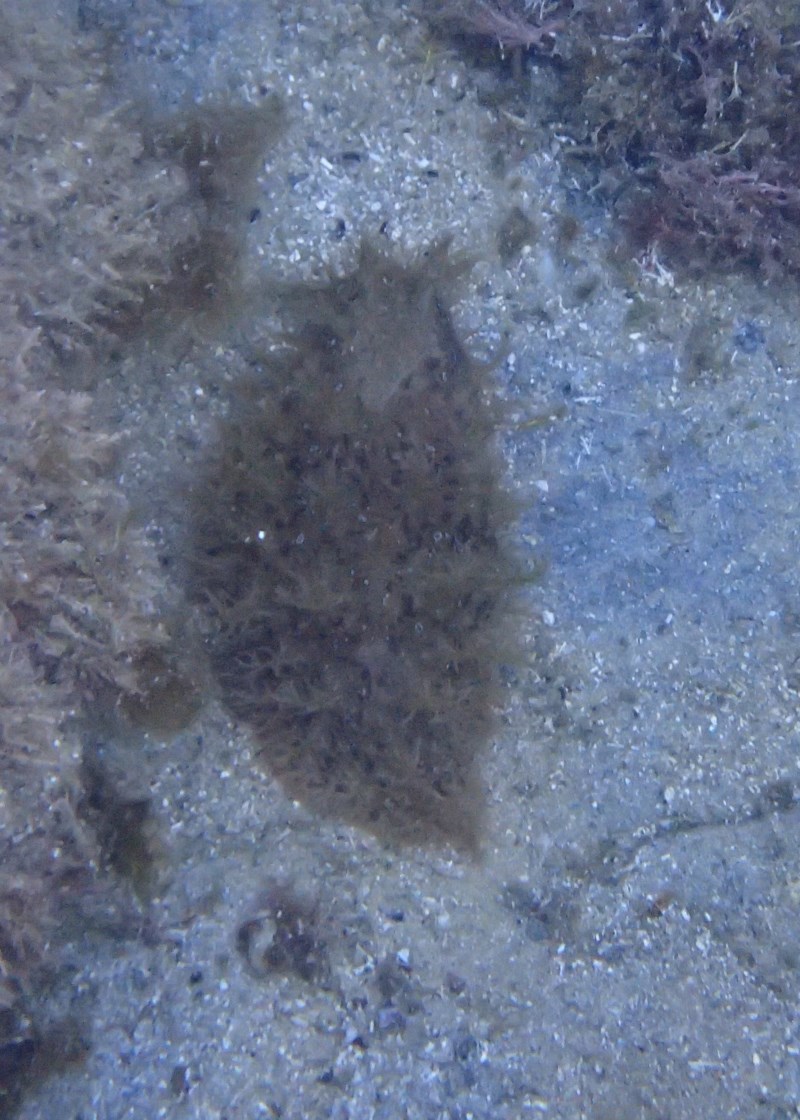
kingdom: Animalia
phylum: Mollusca
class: Gastropoda
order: Aplysiida
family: Aplysiidae
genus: Bursatella
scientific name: Bursatella leachii
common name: Shaggy sea hare
